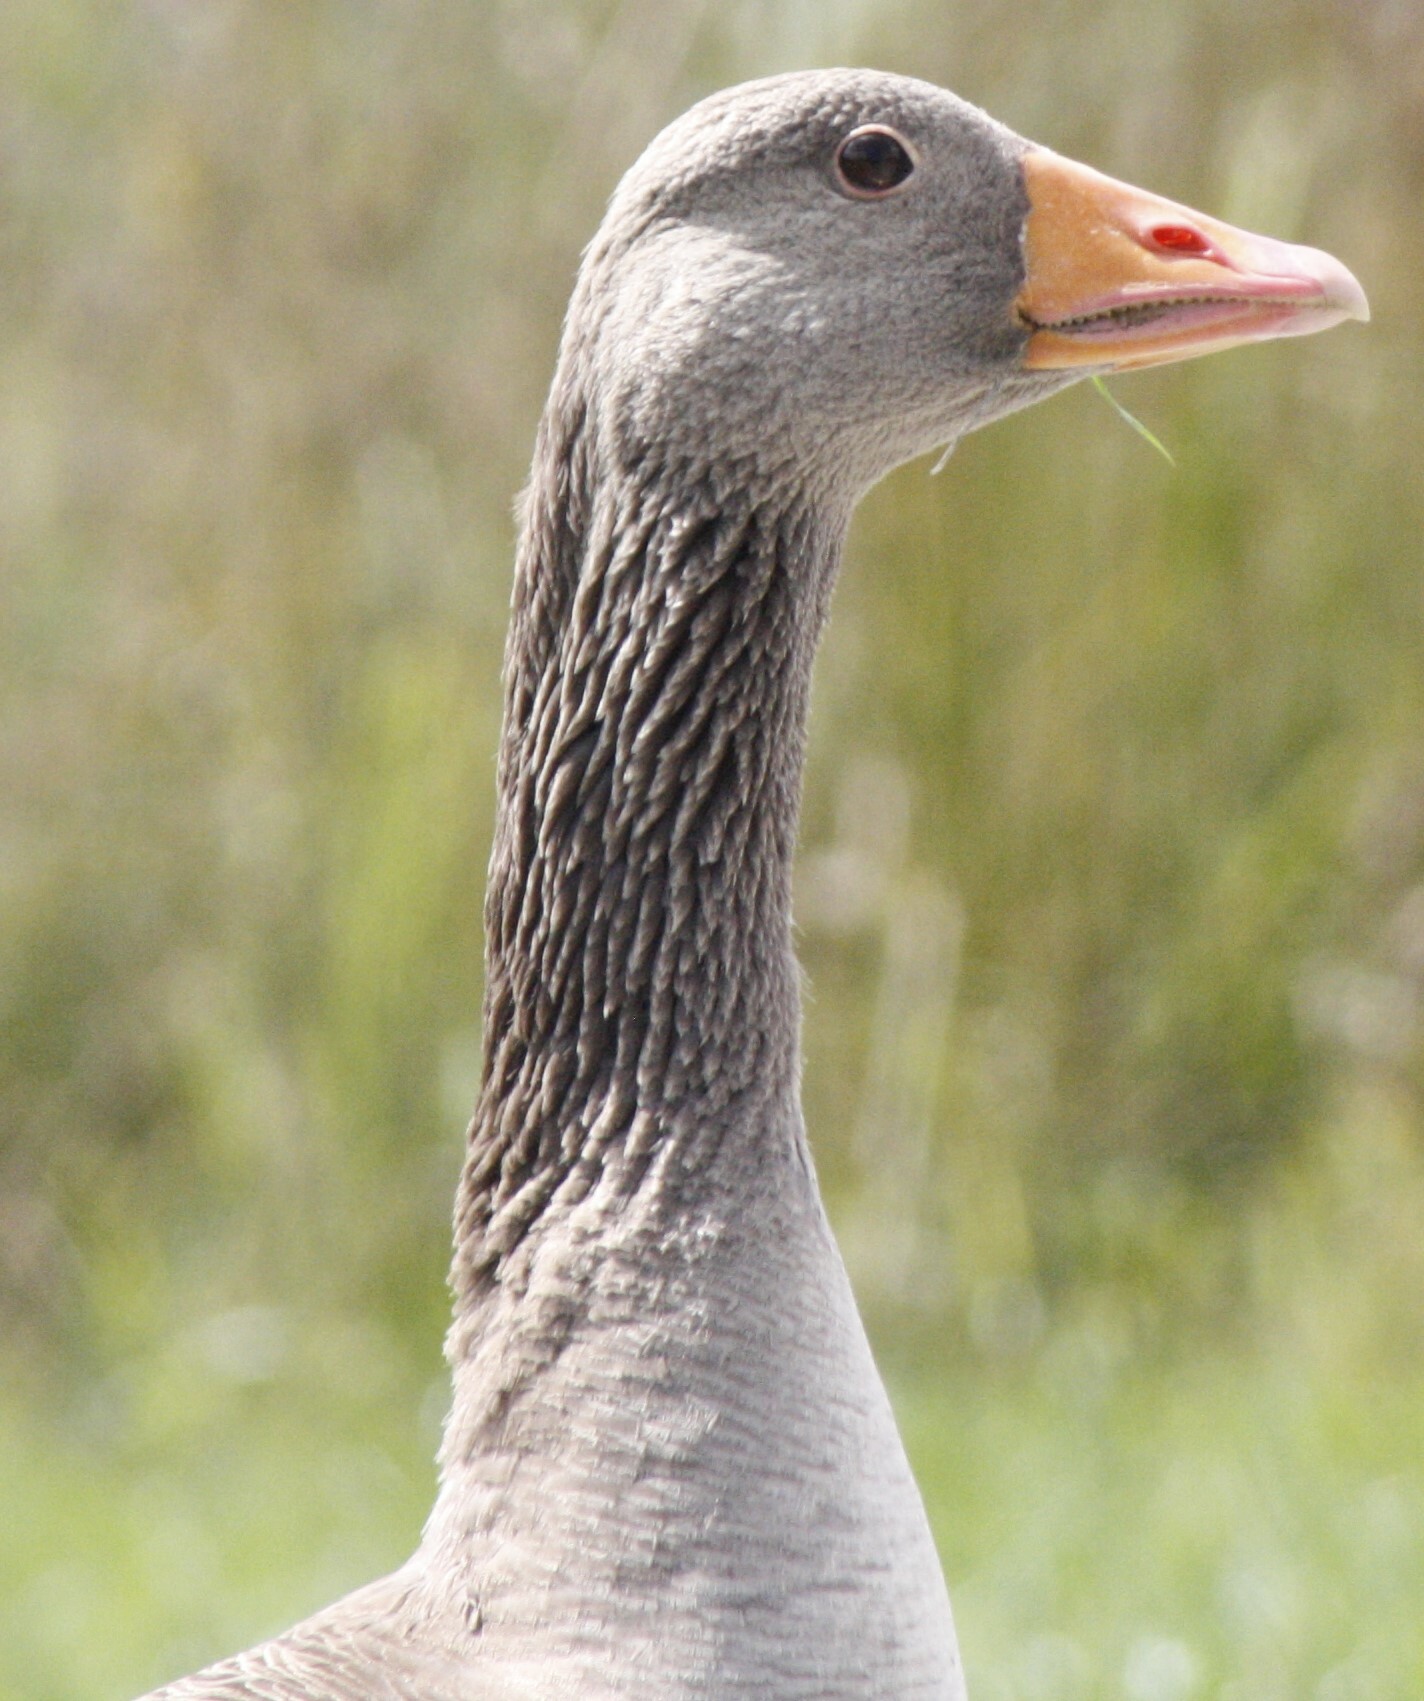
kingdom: Animalia
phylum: Chordata
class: Aves
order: Anseriformes
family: Anatidae
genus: Anser
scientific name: Anser anser
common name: Greylag goose
